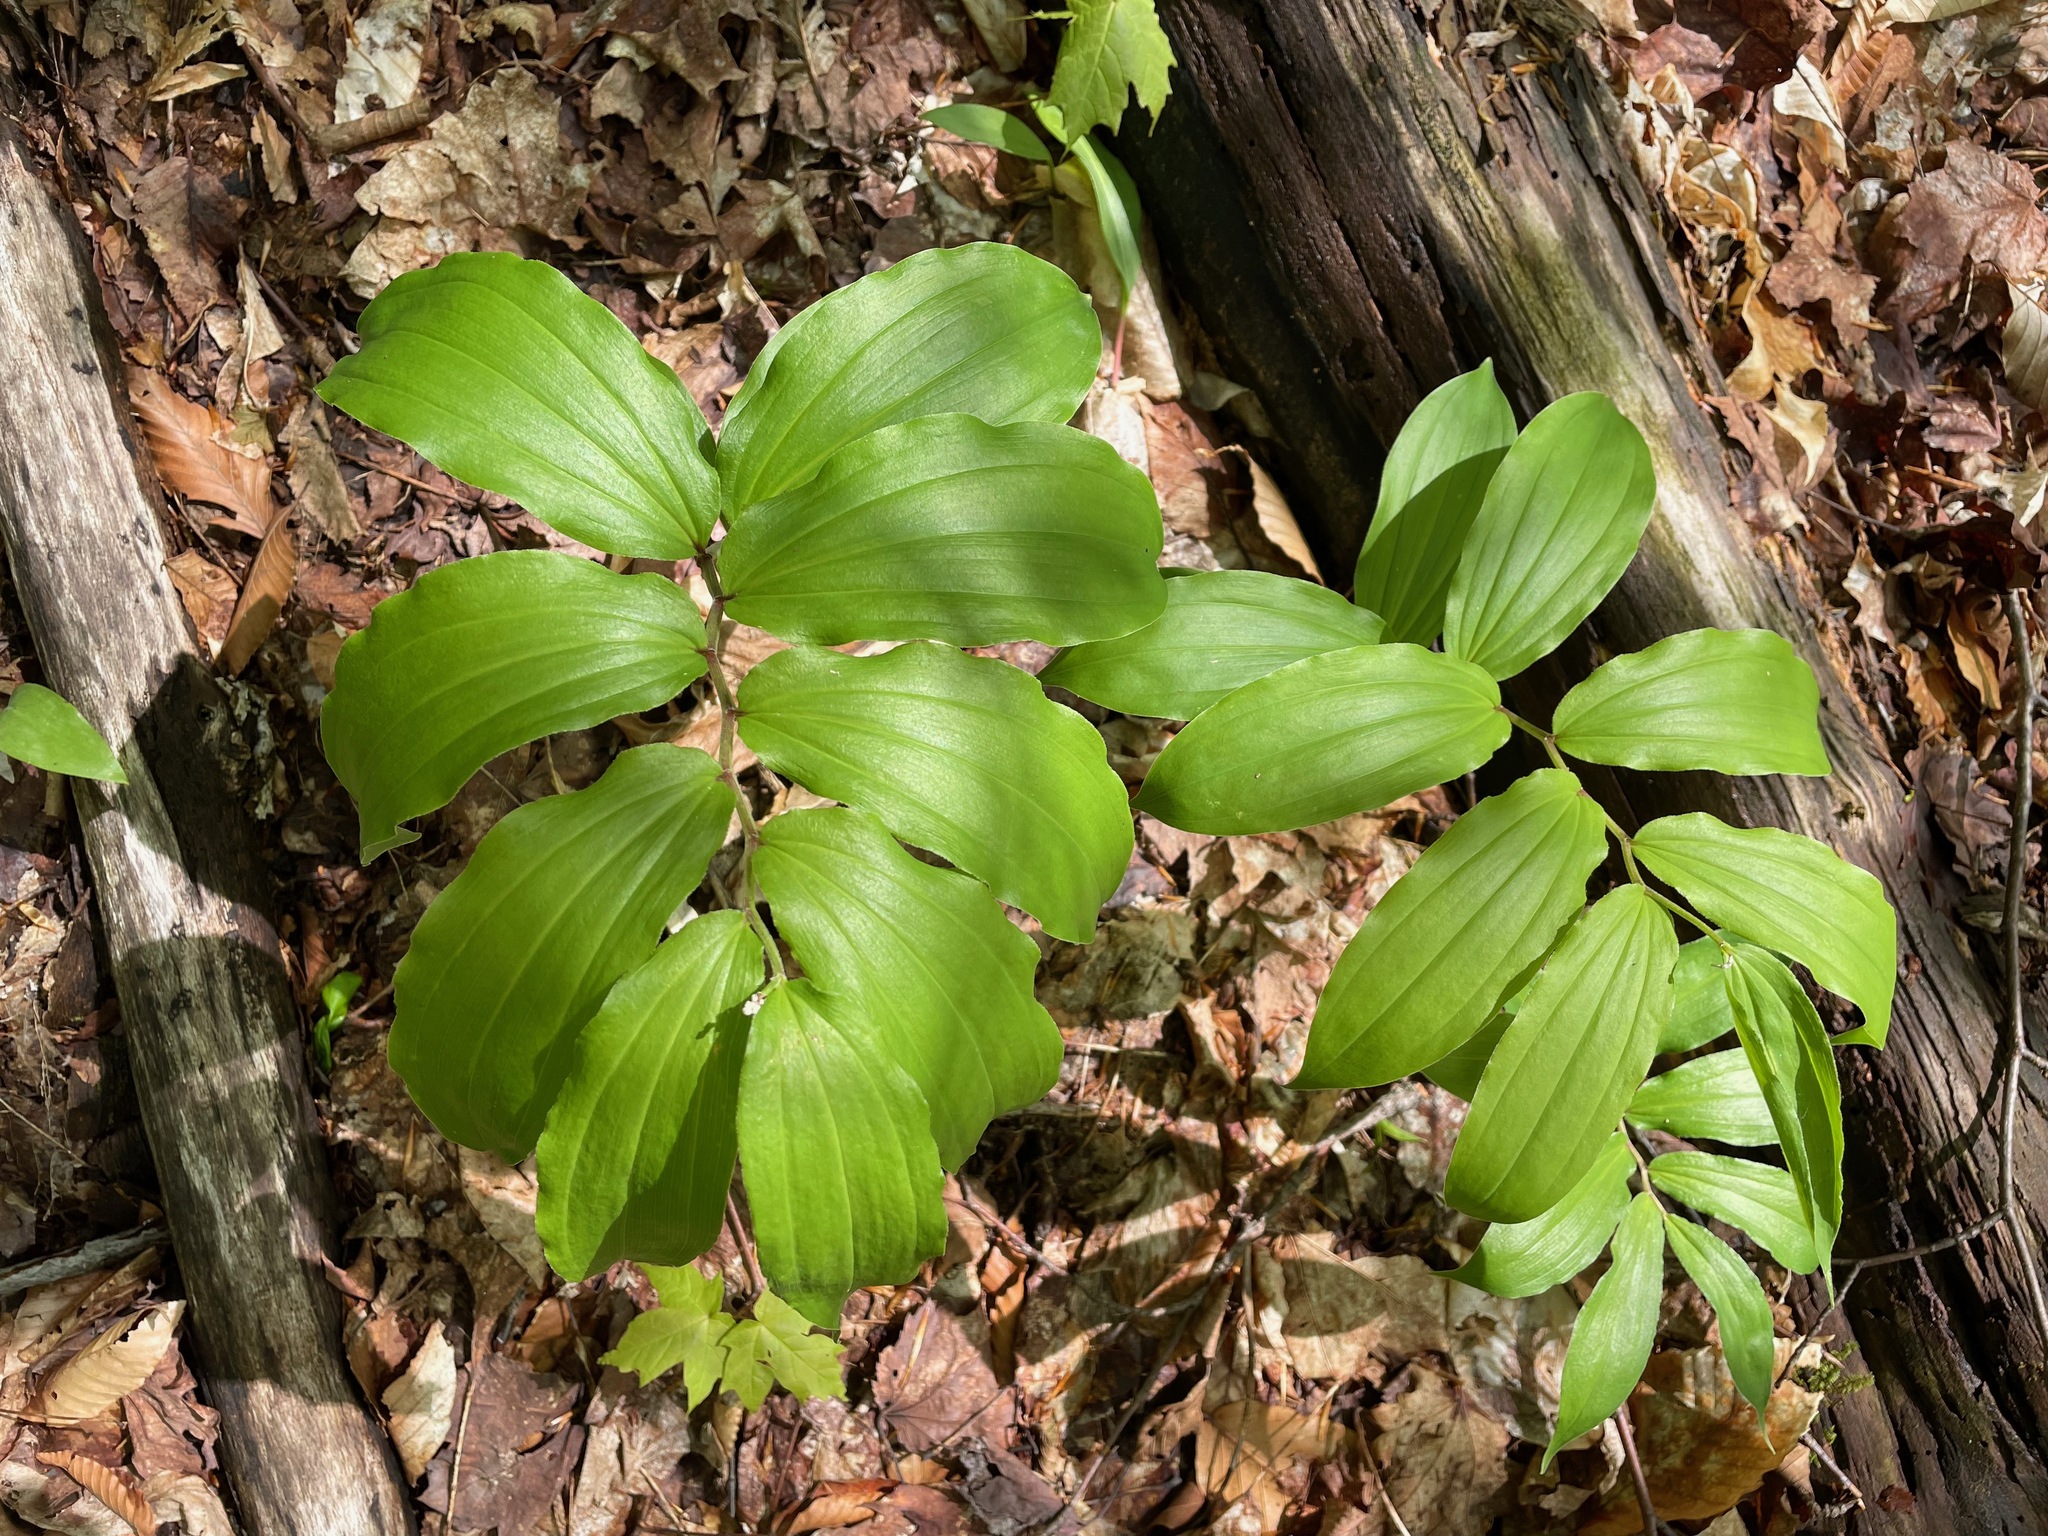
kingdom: Plantae
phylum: Tracheophyta
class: Liliopsida
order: Asparagales
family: Asparagaceae
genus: Maianthemum
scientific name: Maianthemum racemosum
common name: False spikenard
